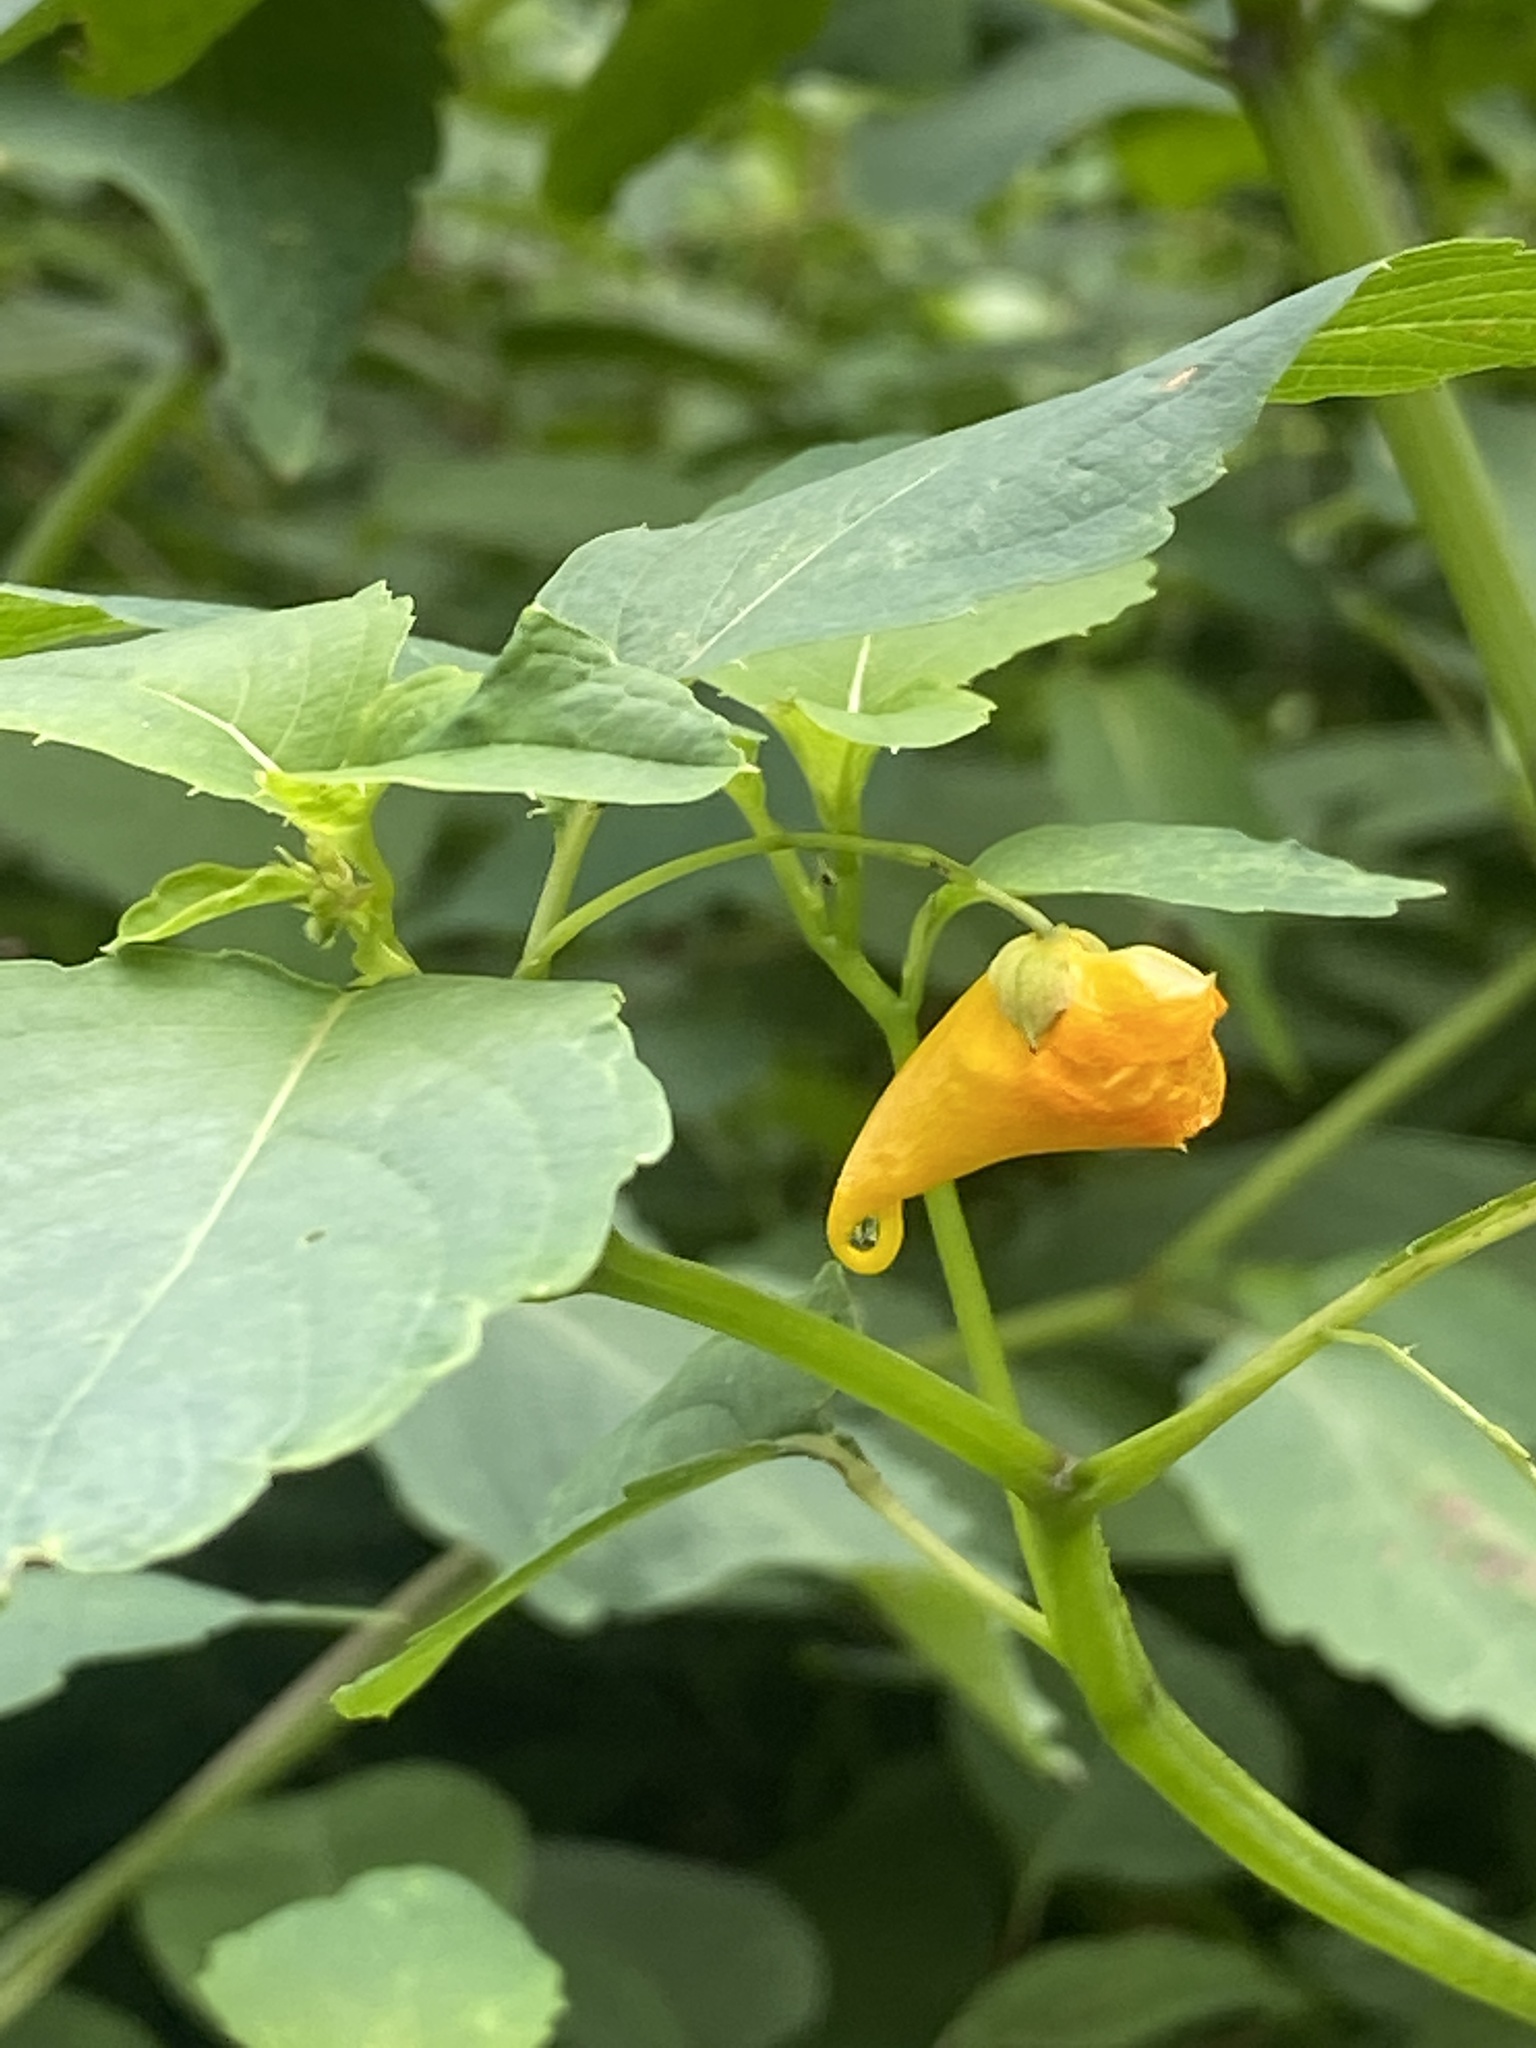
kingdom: Plantae
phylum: Tracheophyta
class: Magnoliopsida
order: Ericales
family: Balsaminaceae
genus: Impatiens
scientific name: Impatiens capensis
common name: Orange balsam
